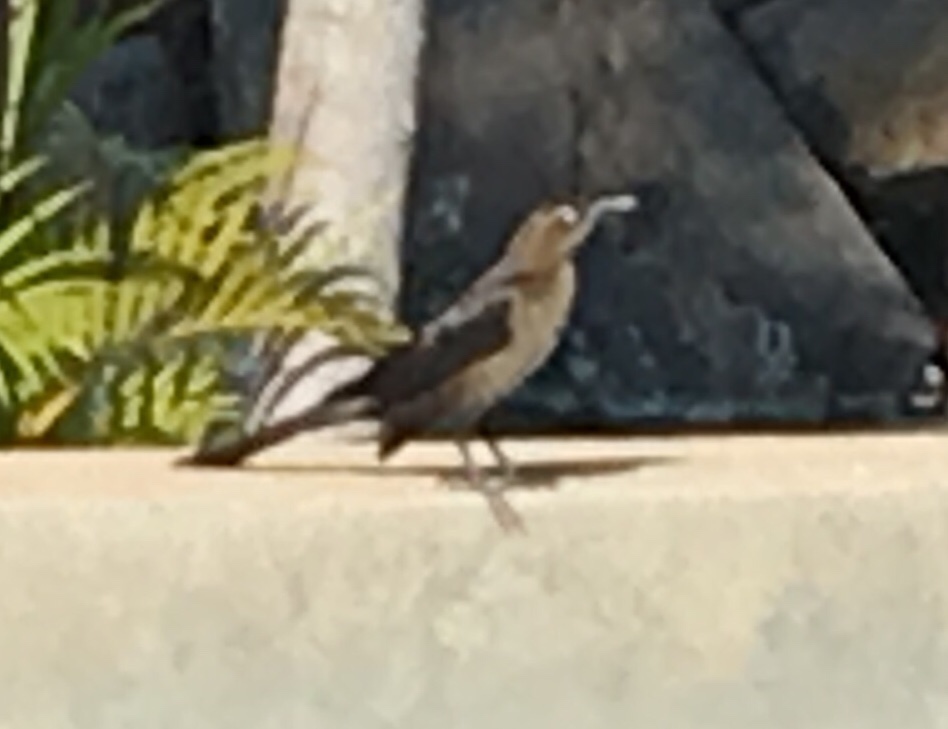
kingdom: Animalia
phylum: Chordata
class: Aves
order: Passeriformes
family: Icteridae
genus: Quiscalus
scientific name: Quiscalus mexicanus
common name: Great-tailed grackle
